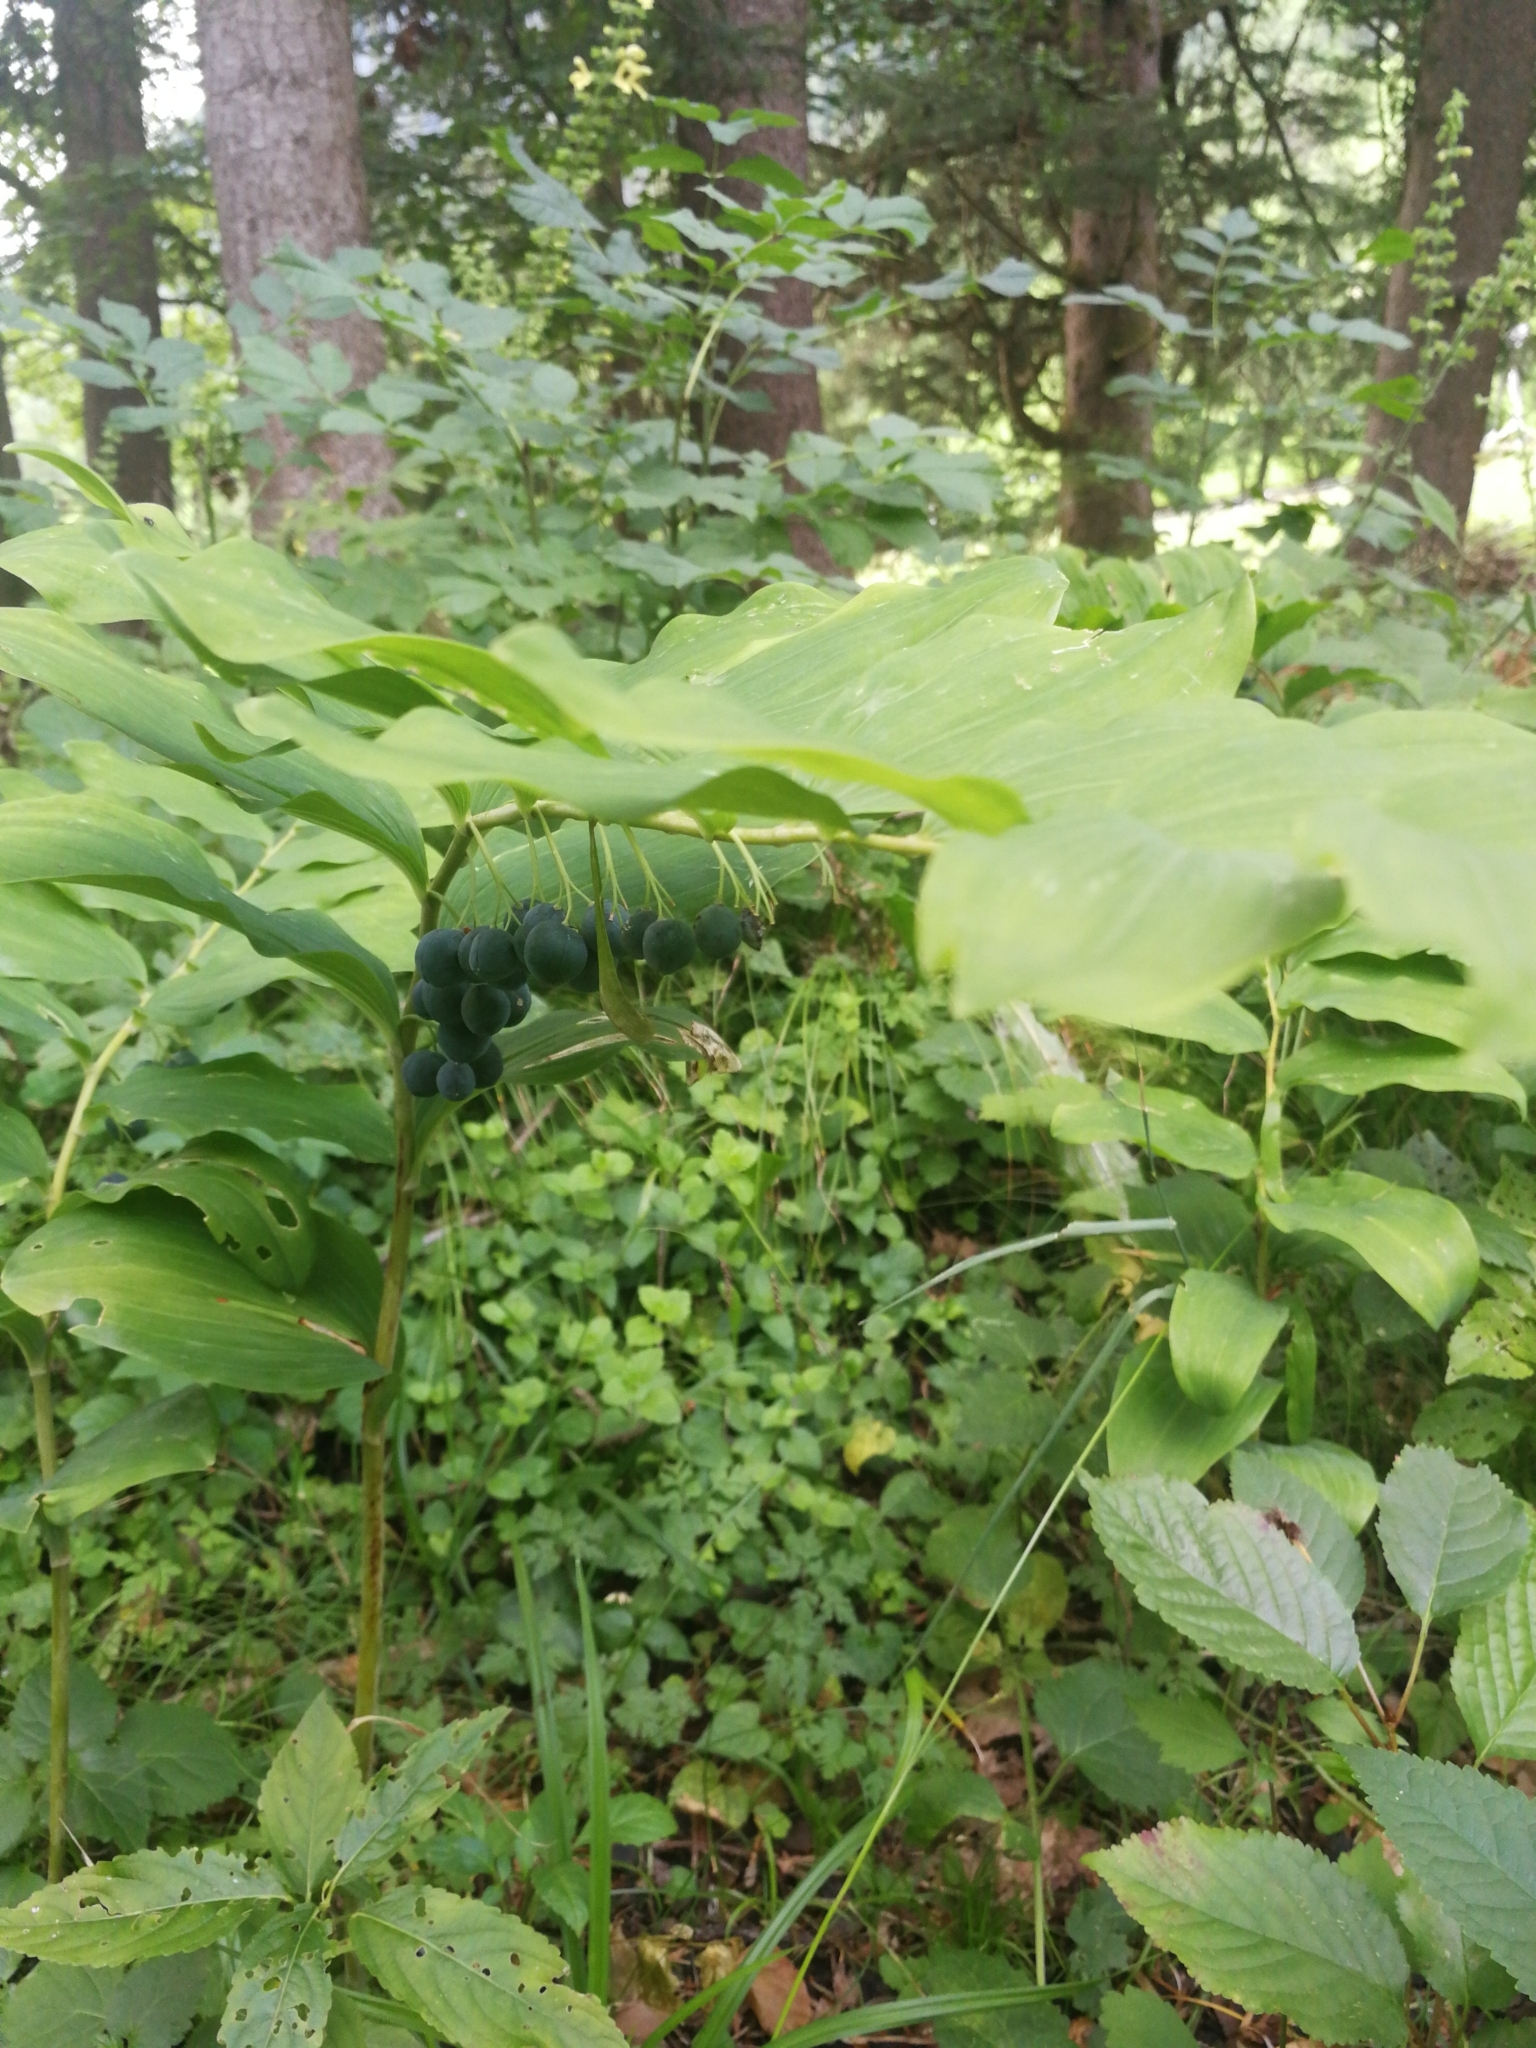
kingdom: Plantae
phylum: Tracheophyta
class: Liliopsida
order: Asparagales
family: Asparagaceae
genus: Polygonatum
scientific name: Polygonatum multiflorum
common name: Solomon's-seal
